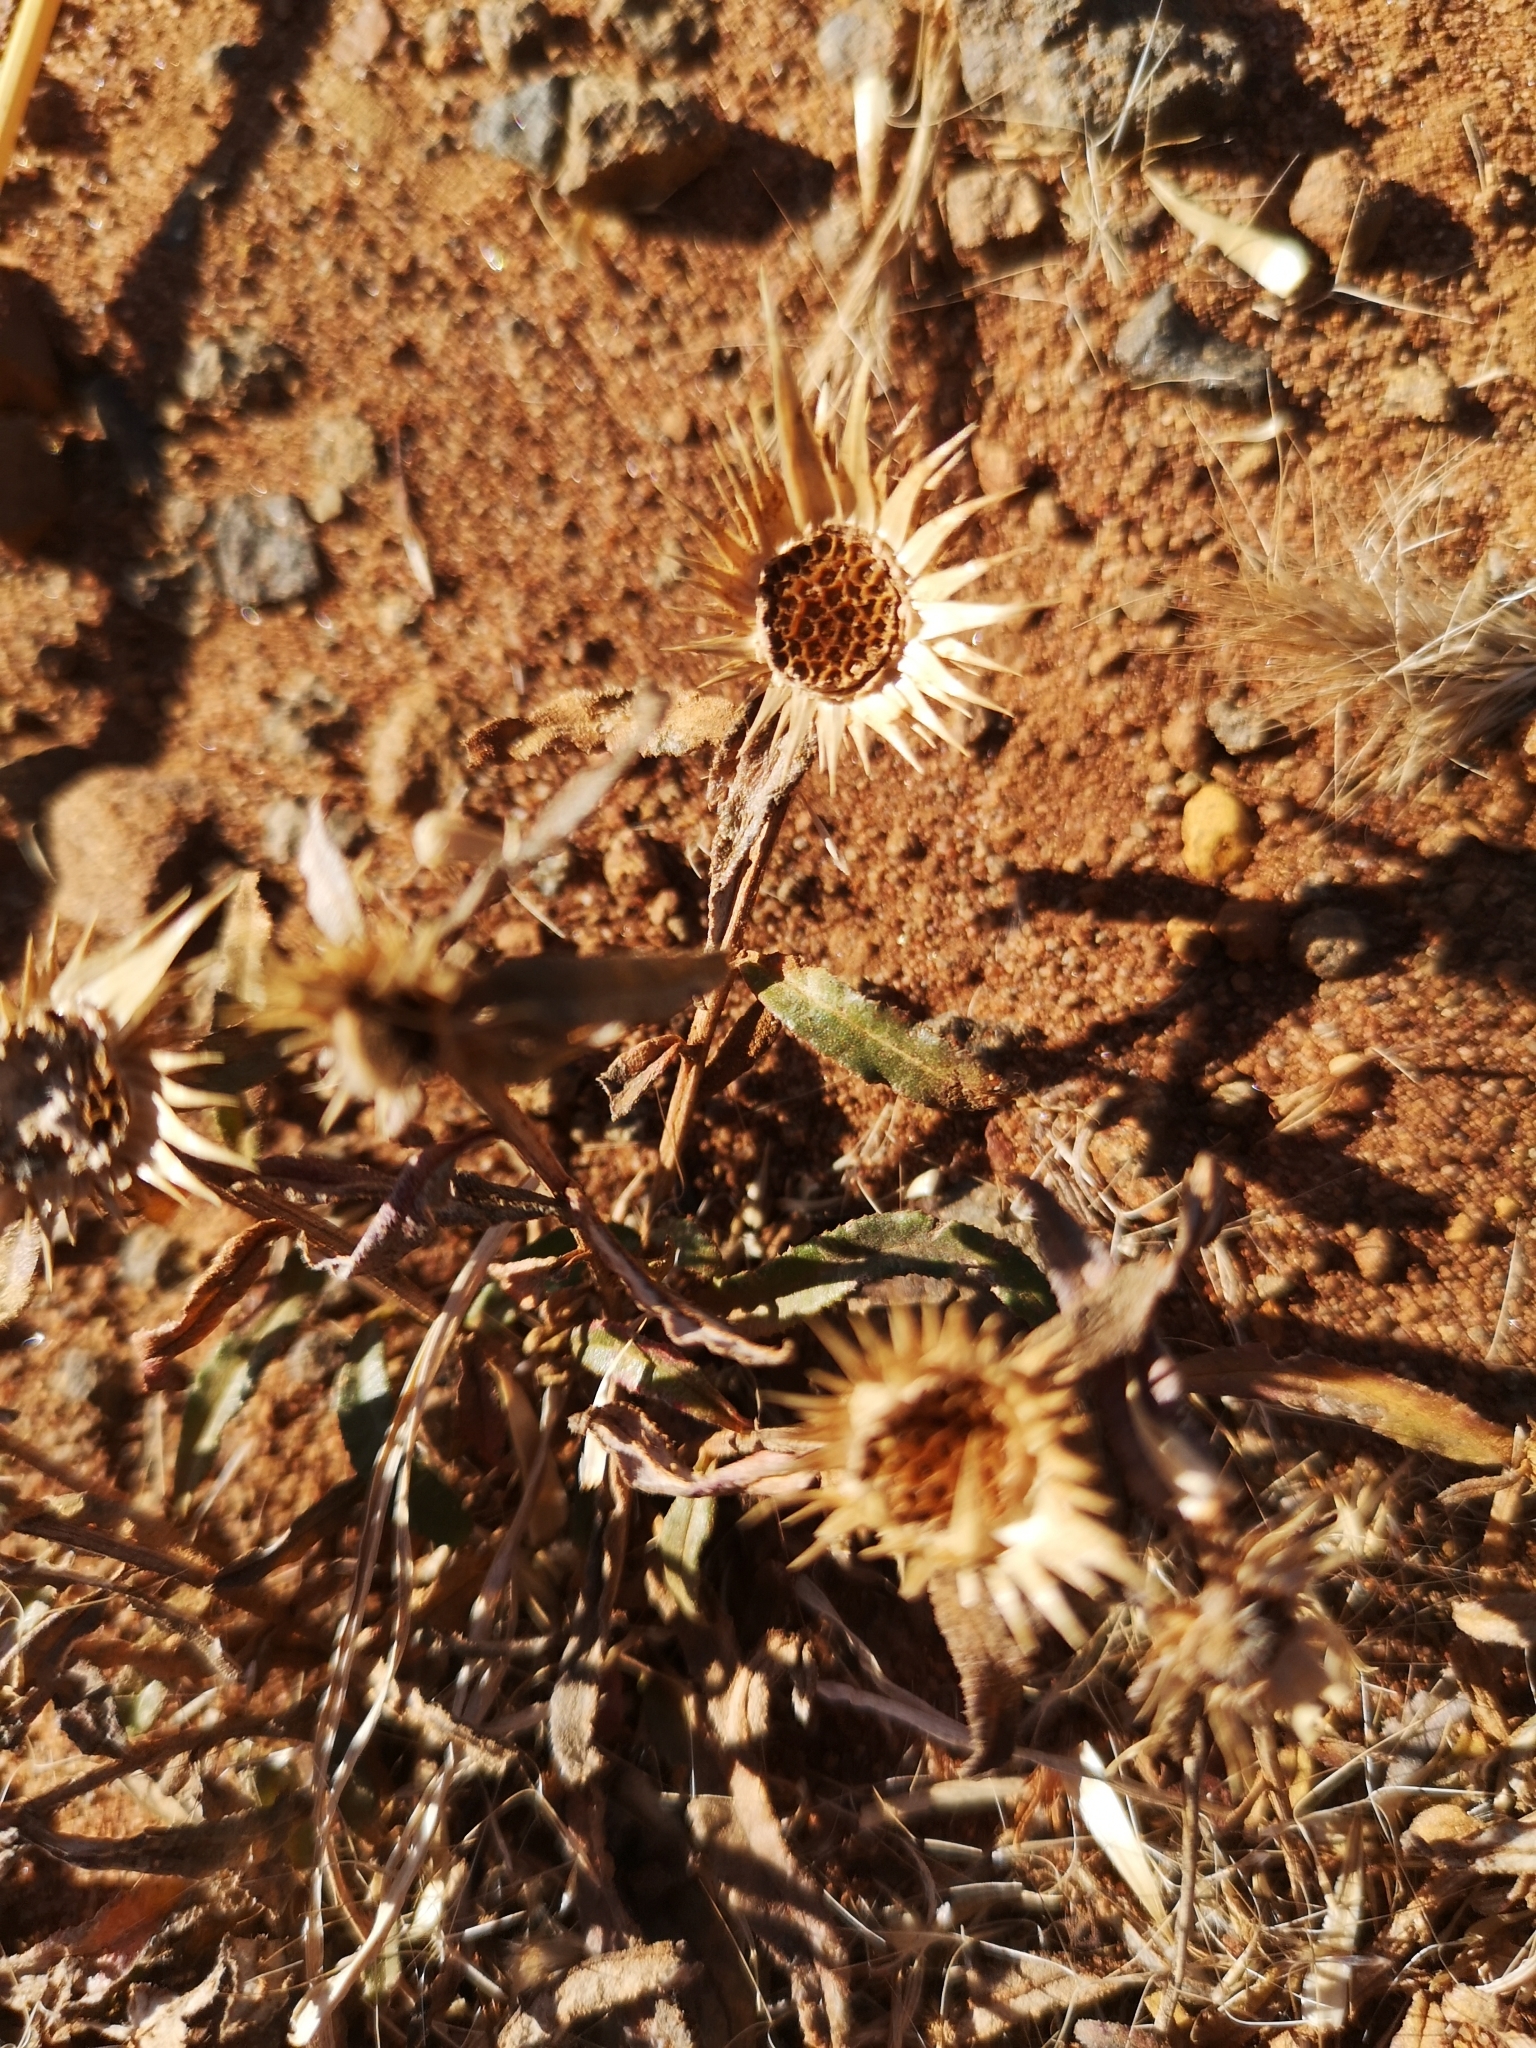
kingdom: Plantae
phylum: Tracheophyta
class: Magnoliopsida
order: Asterales
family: Asteraceae
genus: Dicoma
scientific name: Dicoma anomala
